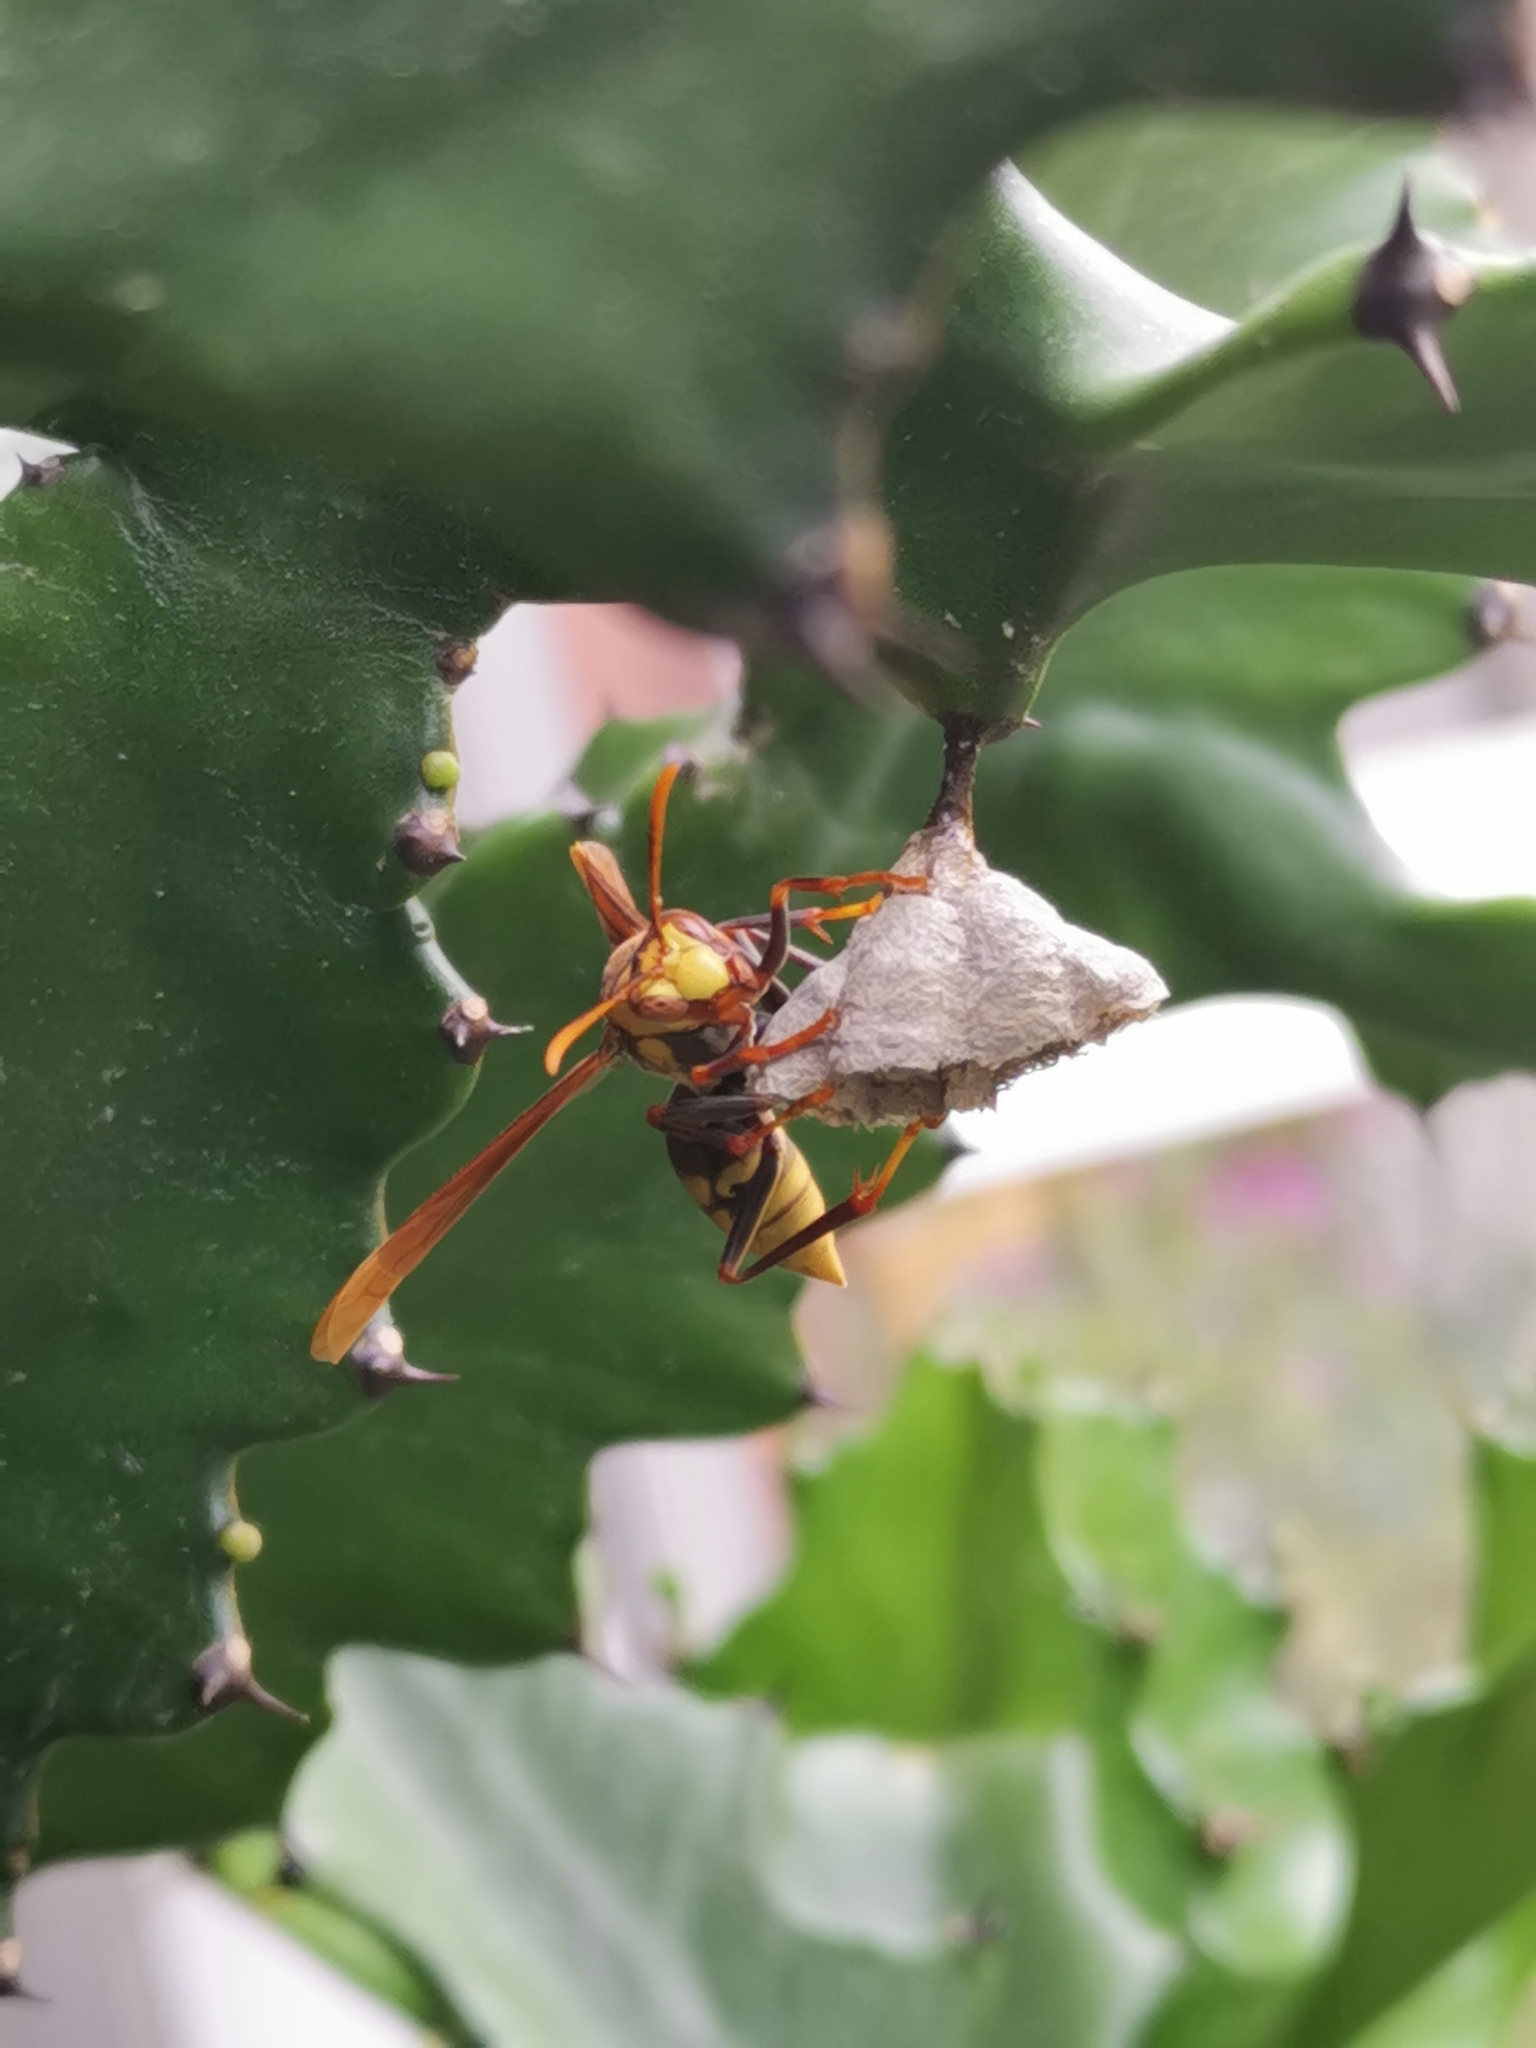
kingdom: Animalia
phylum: Arthropoda
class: Insecta
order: Hymenoptera
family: Eumenidae
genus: Polistes
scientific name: Polistes major
